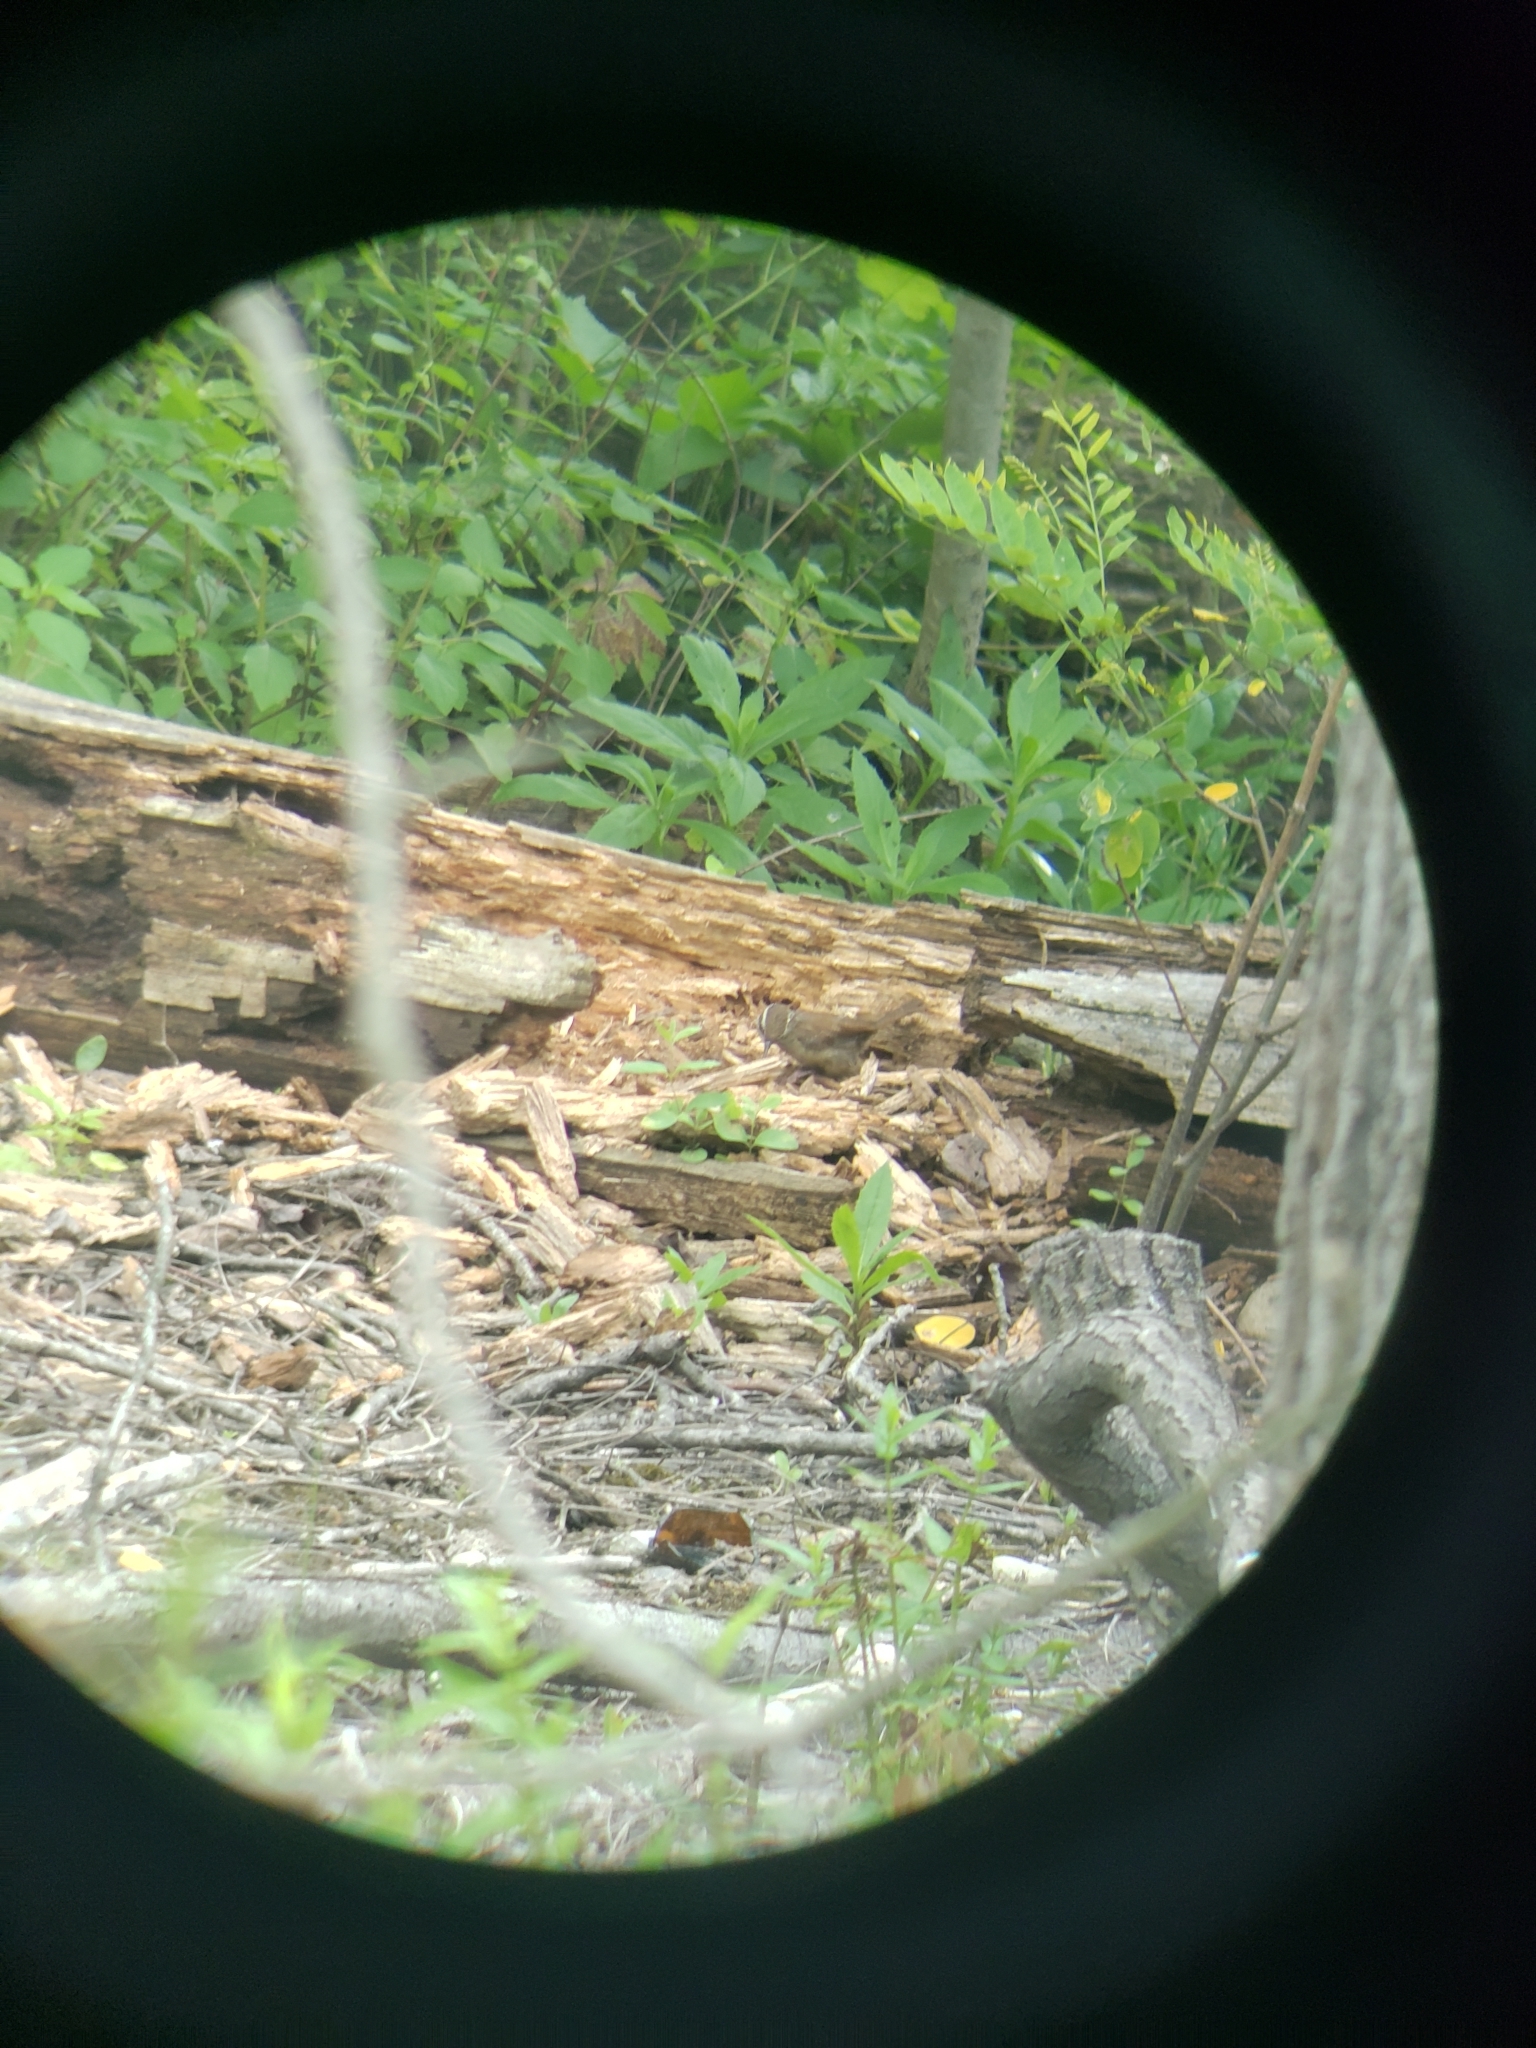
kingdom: Animalia
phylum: Chordata
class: Aves
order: Passeriformes
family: Troglodytidae
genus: Thryothorus
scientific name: Thryothorus ludovicianus
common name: Carolina wren
